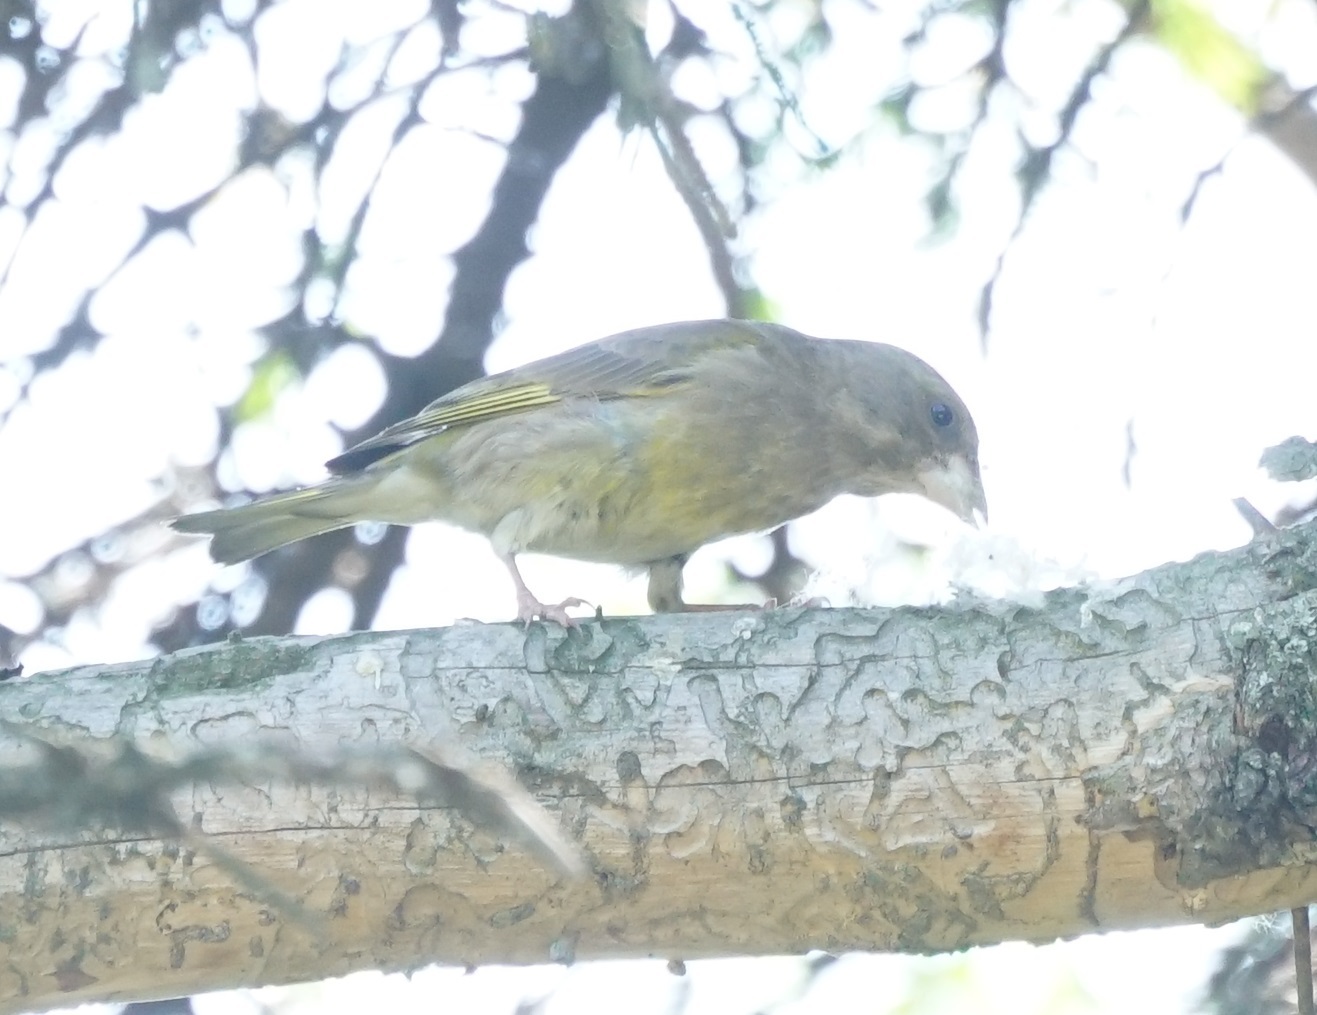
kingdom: Plantae
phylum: Tracheophyta
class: Liliopsida
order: Poales
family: Poaceae
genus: Chloris
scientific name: Chloris chloris
